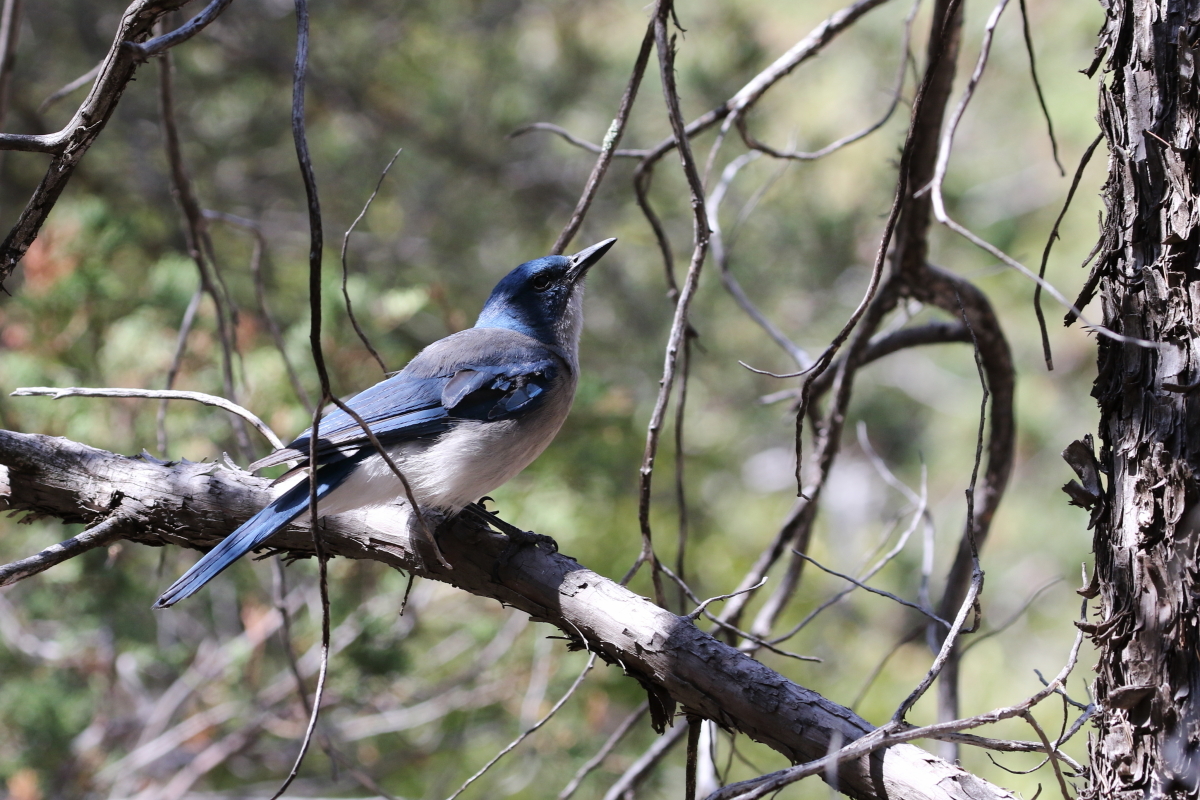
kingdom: Animalia
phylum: Chordata
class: Aves
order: Passeriformes
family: Corvidae
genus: Aphelocoma
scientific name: Aphelocoma wollweberi
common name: Mexican jay
